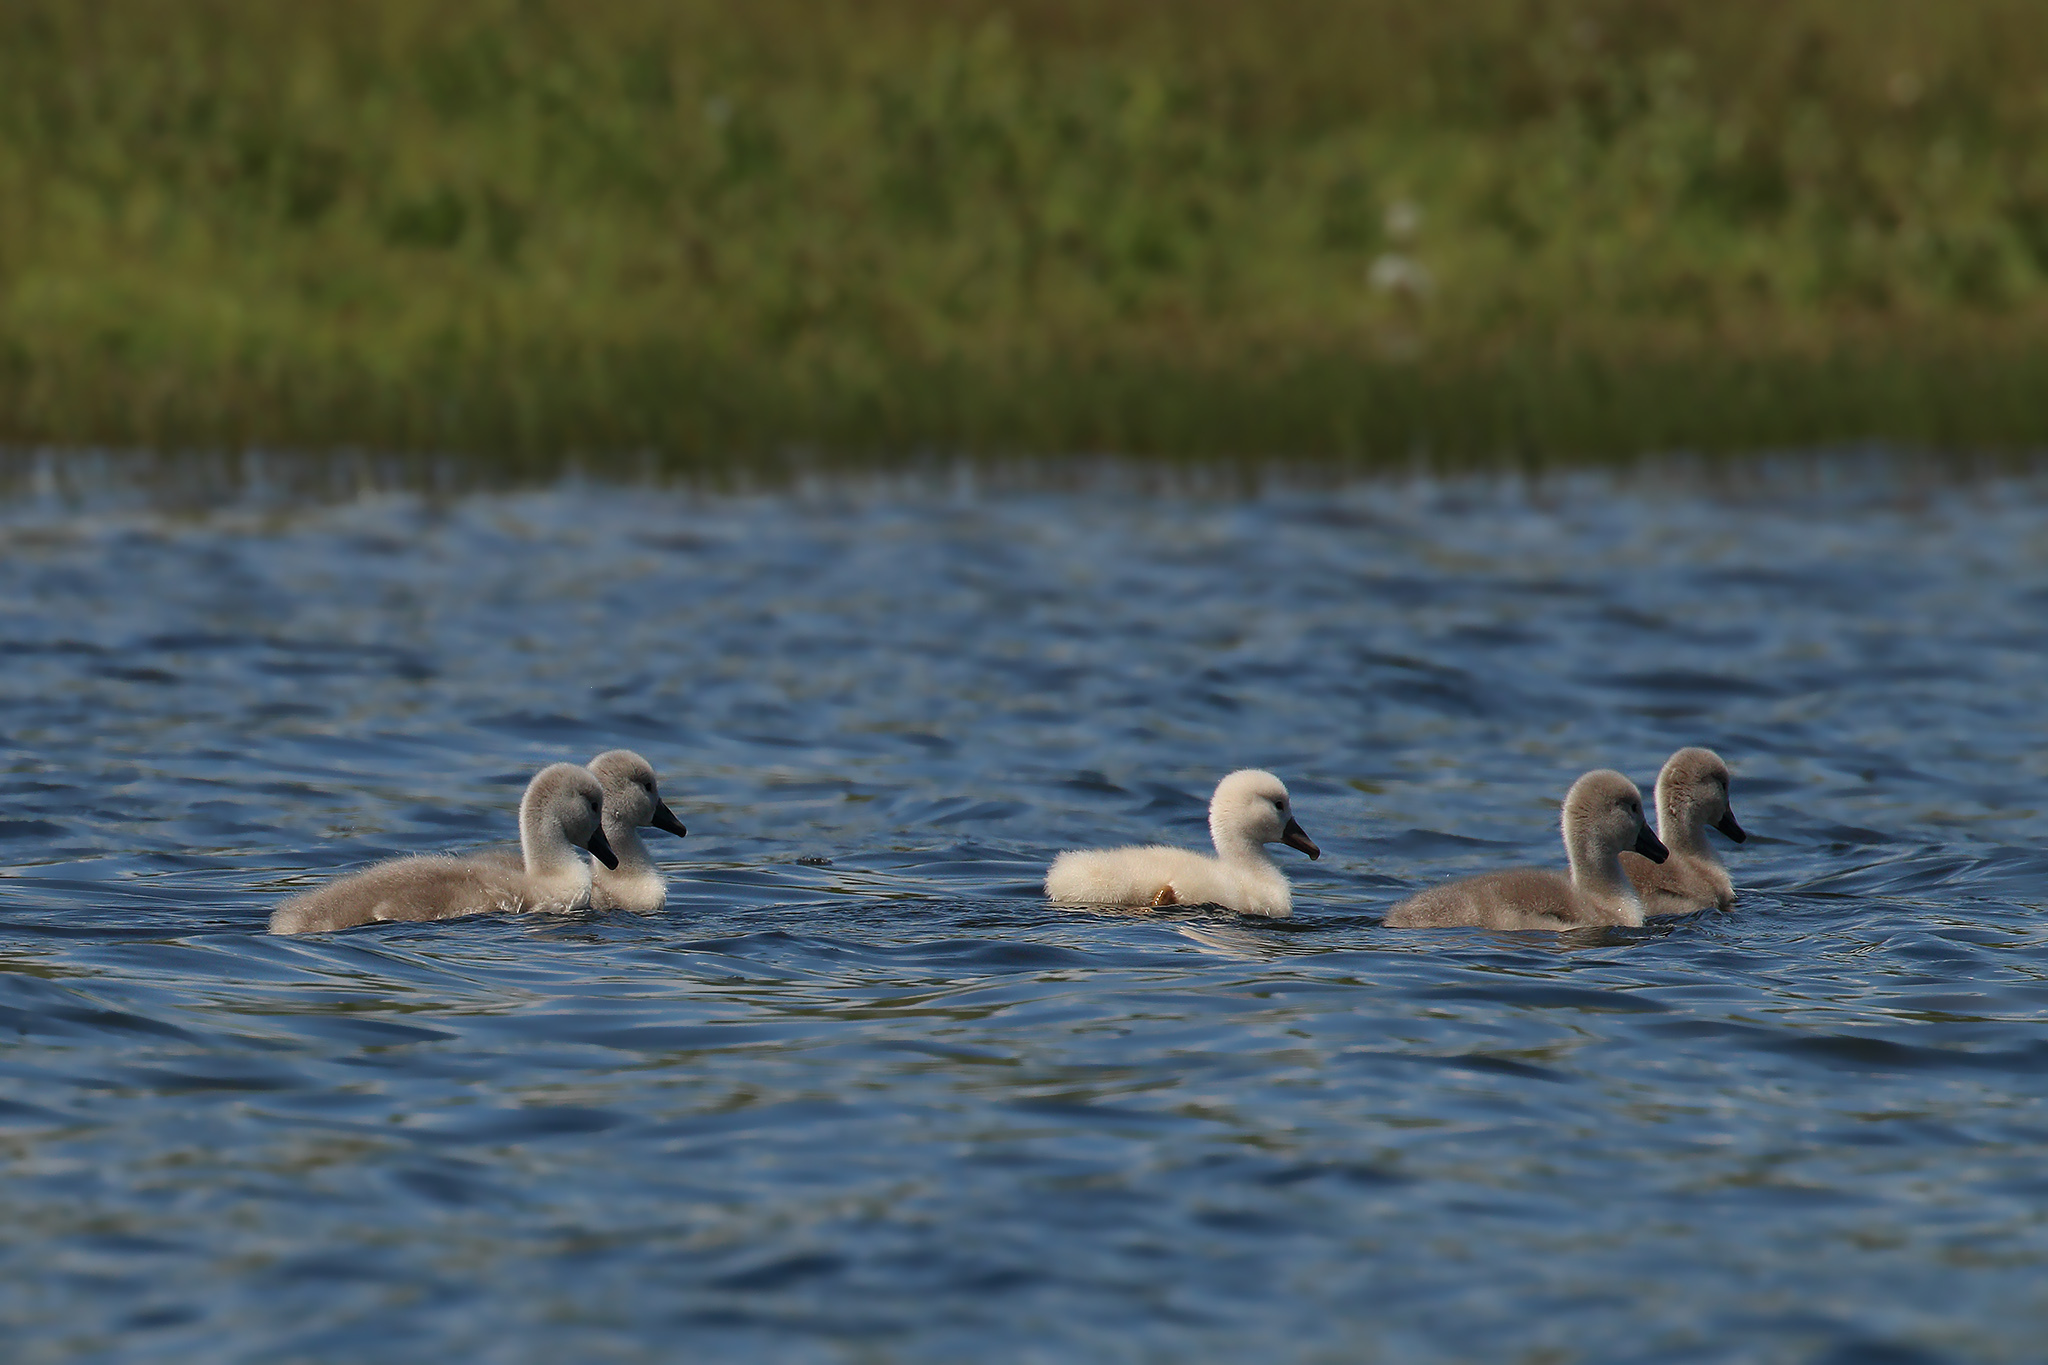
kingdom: Animalia
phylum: Chordata
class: Aves
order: Anseriformes
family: Anatidae
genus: Cygnus
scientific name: Cygnus olor
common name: Mute swan
